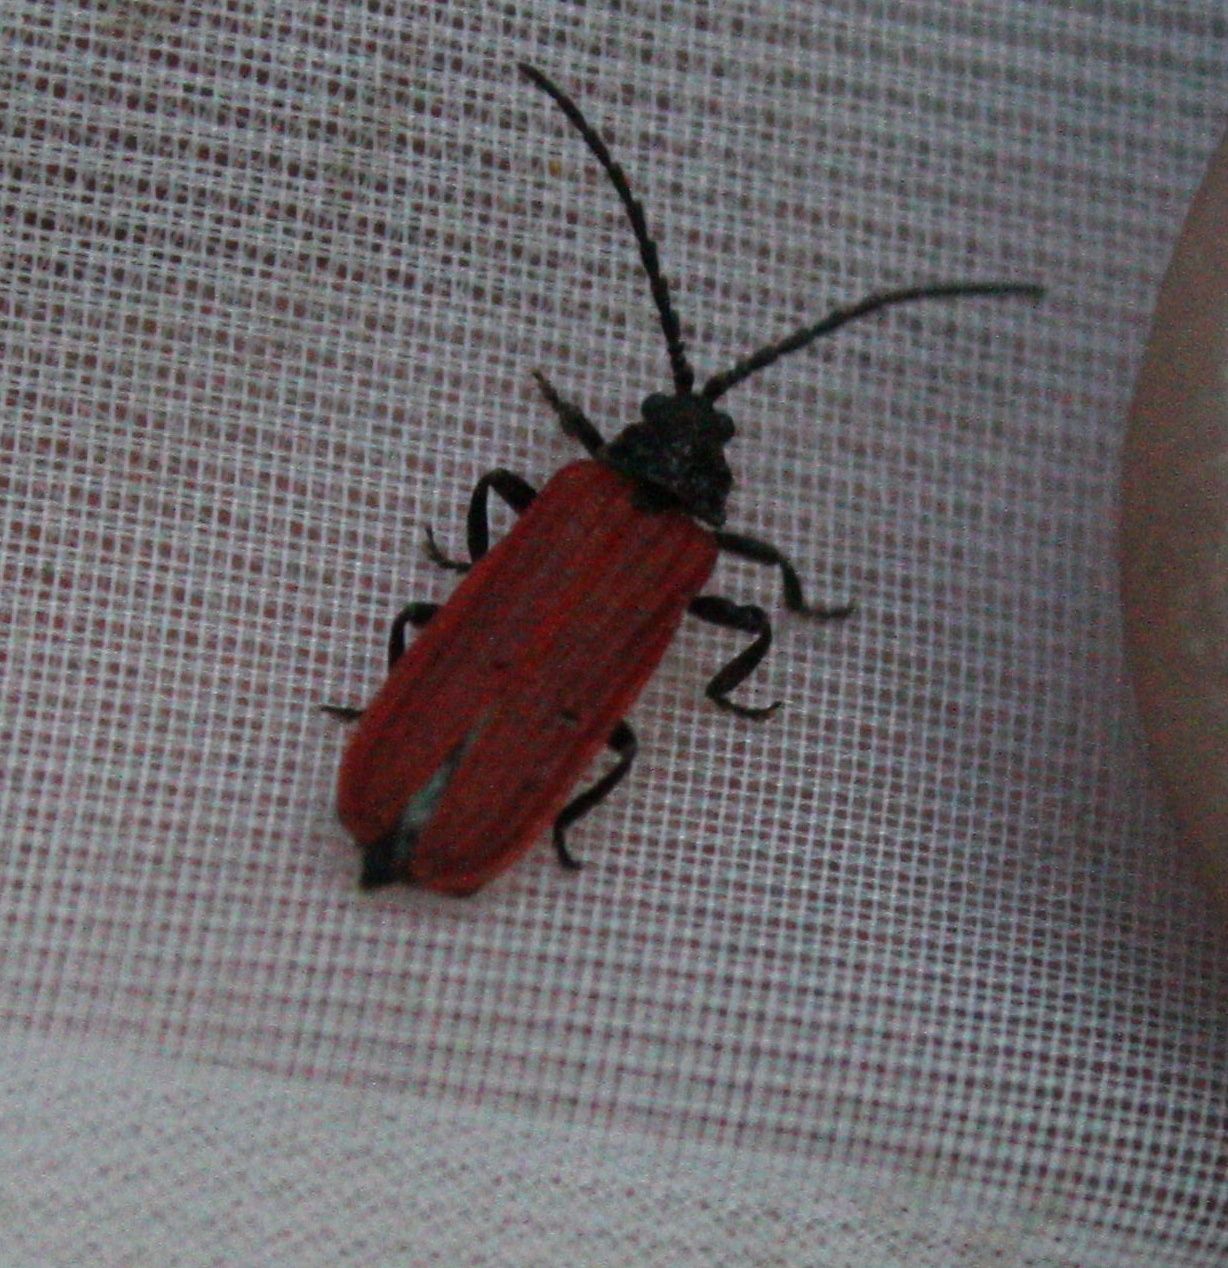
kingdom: Animalia
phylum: Arthropoda
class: Insecta
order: Coleoptera
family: Lycidae
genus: Pyropterus
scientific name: Pyropterus nigroruber
